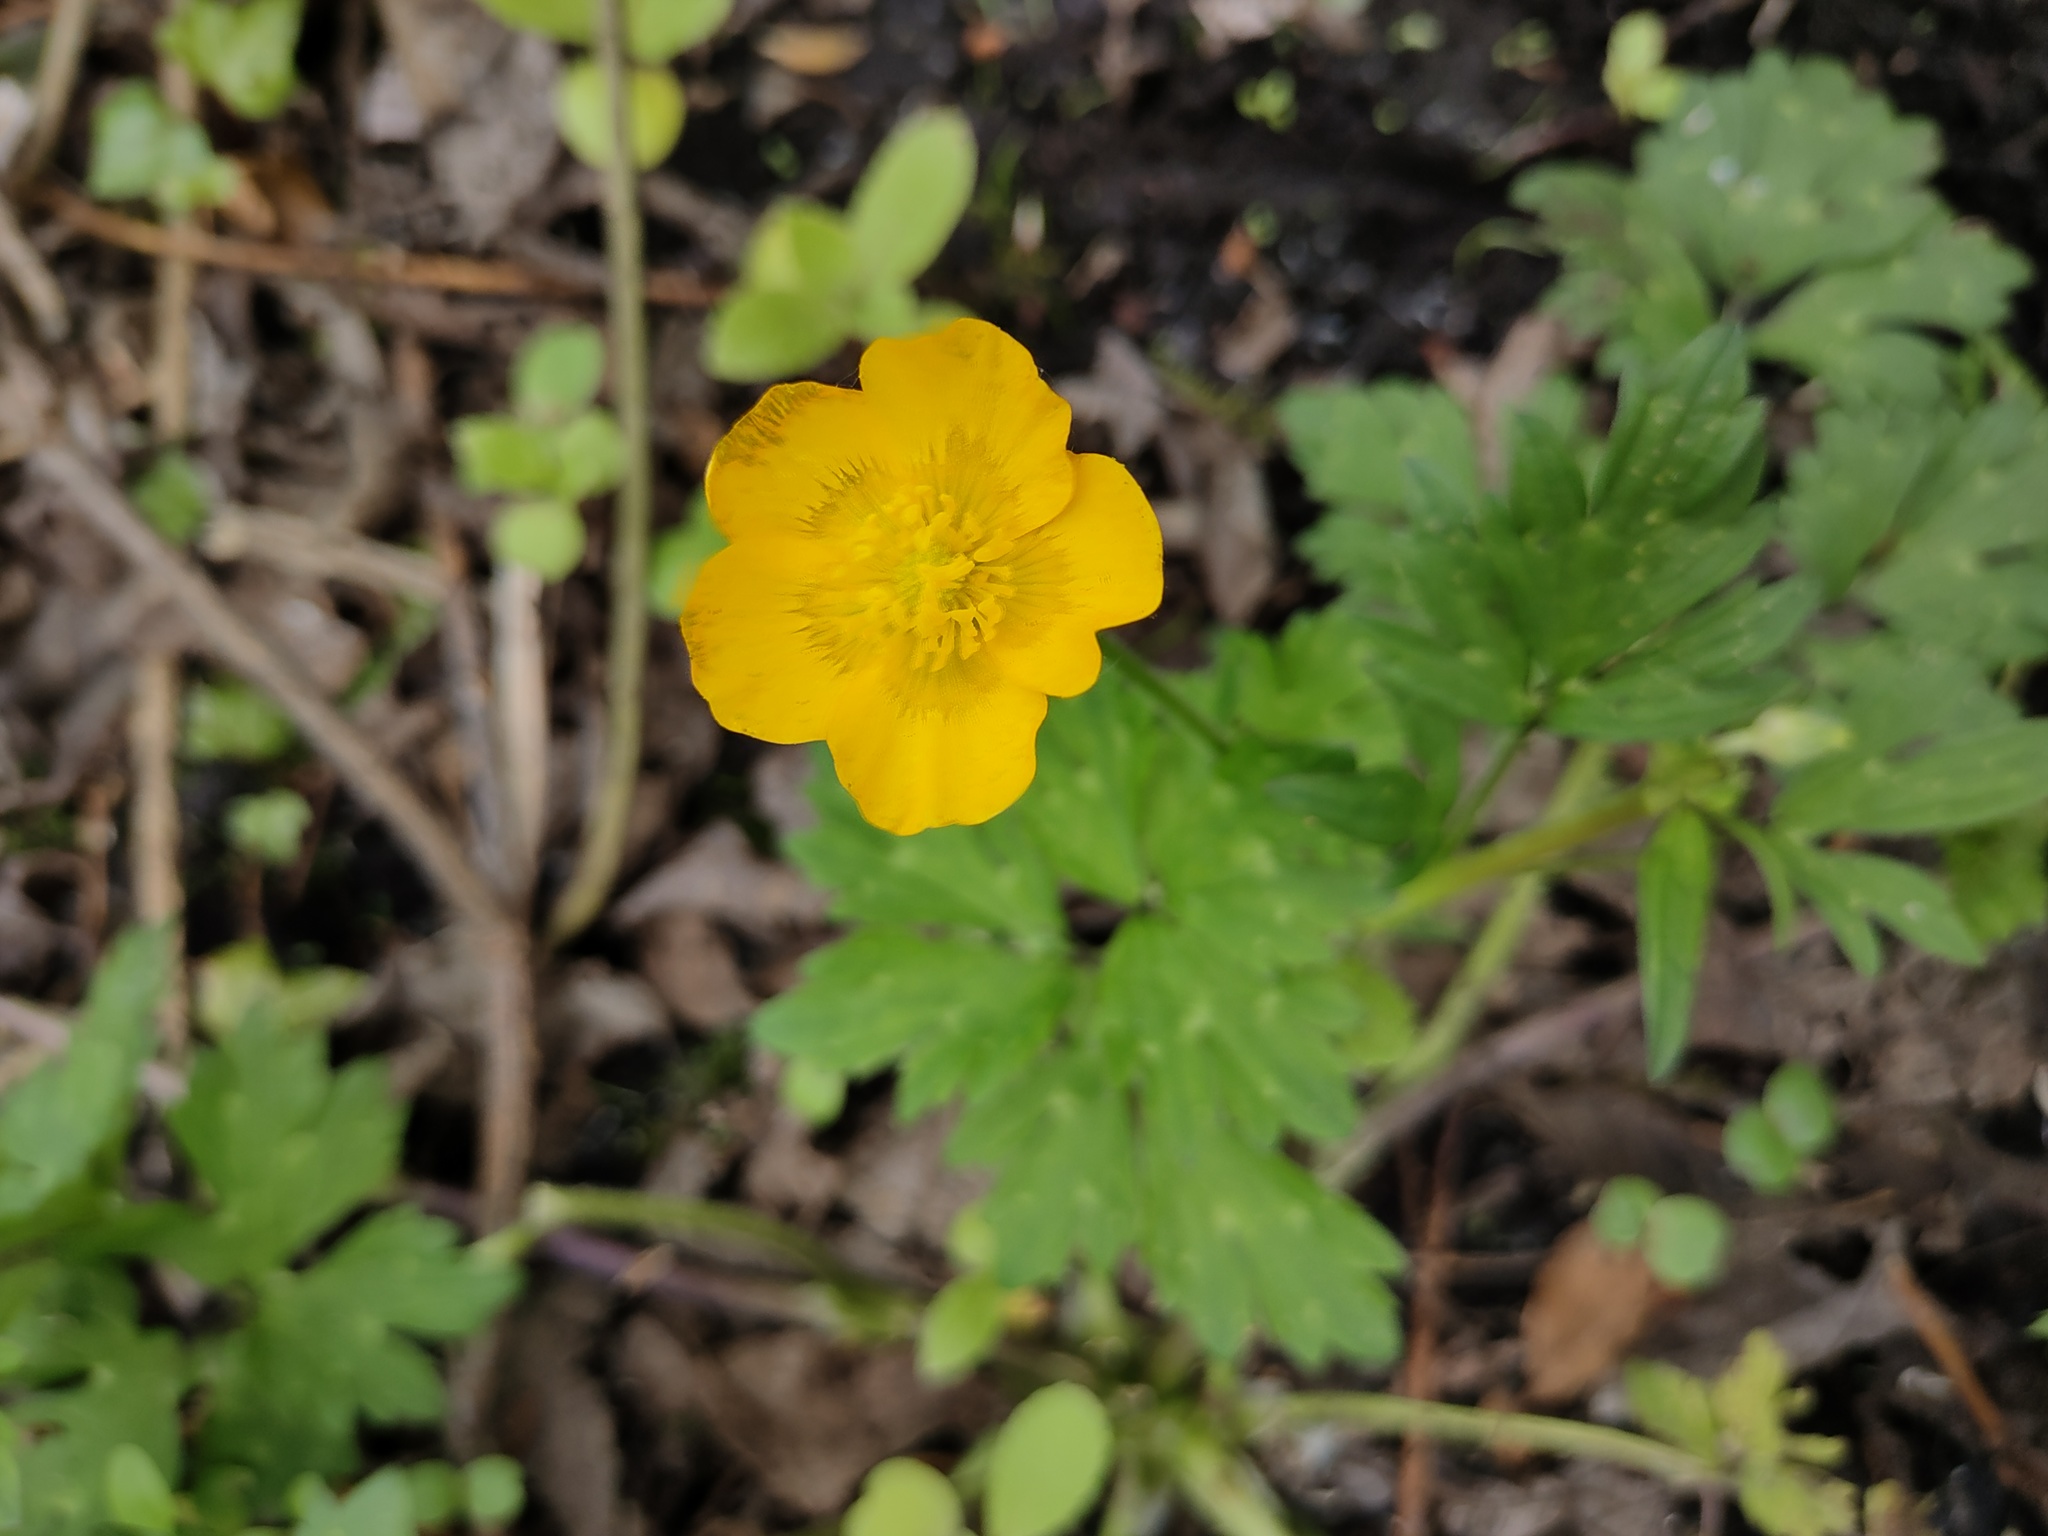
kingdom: Plantae
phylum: Tracheophyta
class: Magnoliopsida
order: Ranunculales
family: Ranunculaceae
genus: Ranunculus
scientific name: Ranunculus repens
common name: Creeping buttercup
